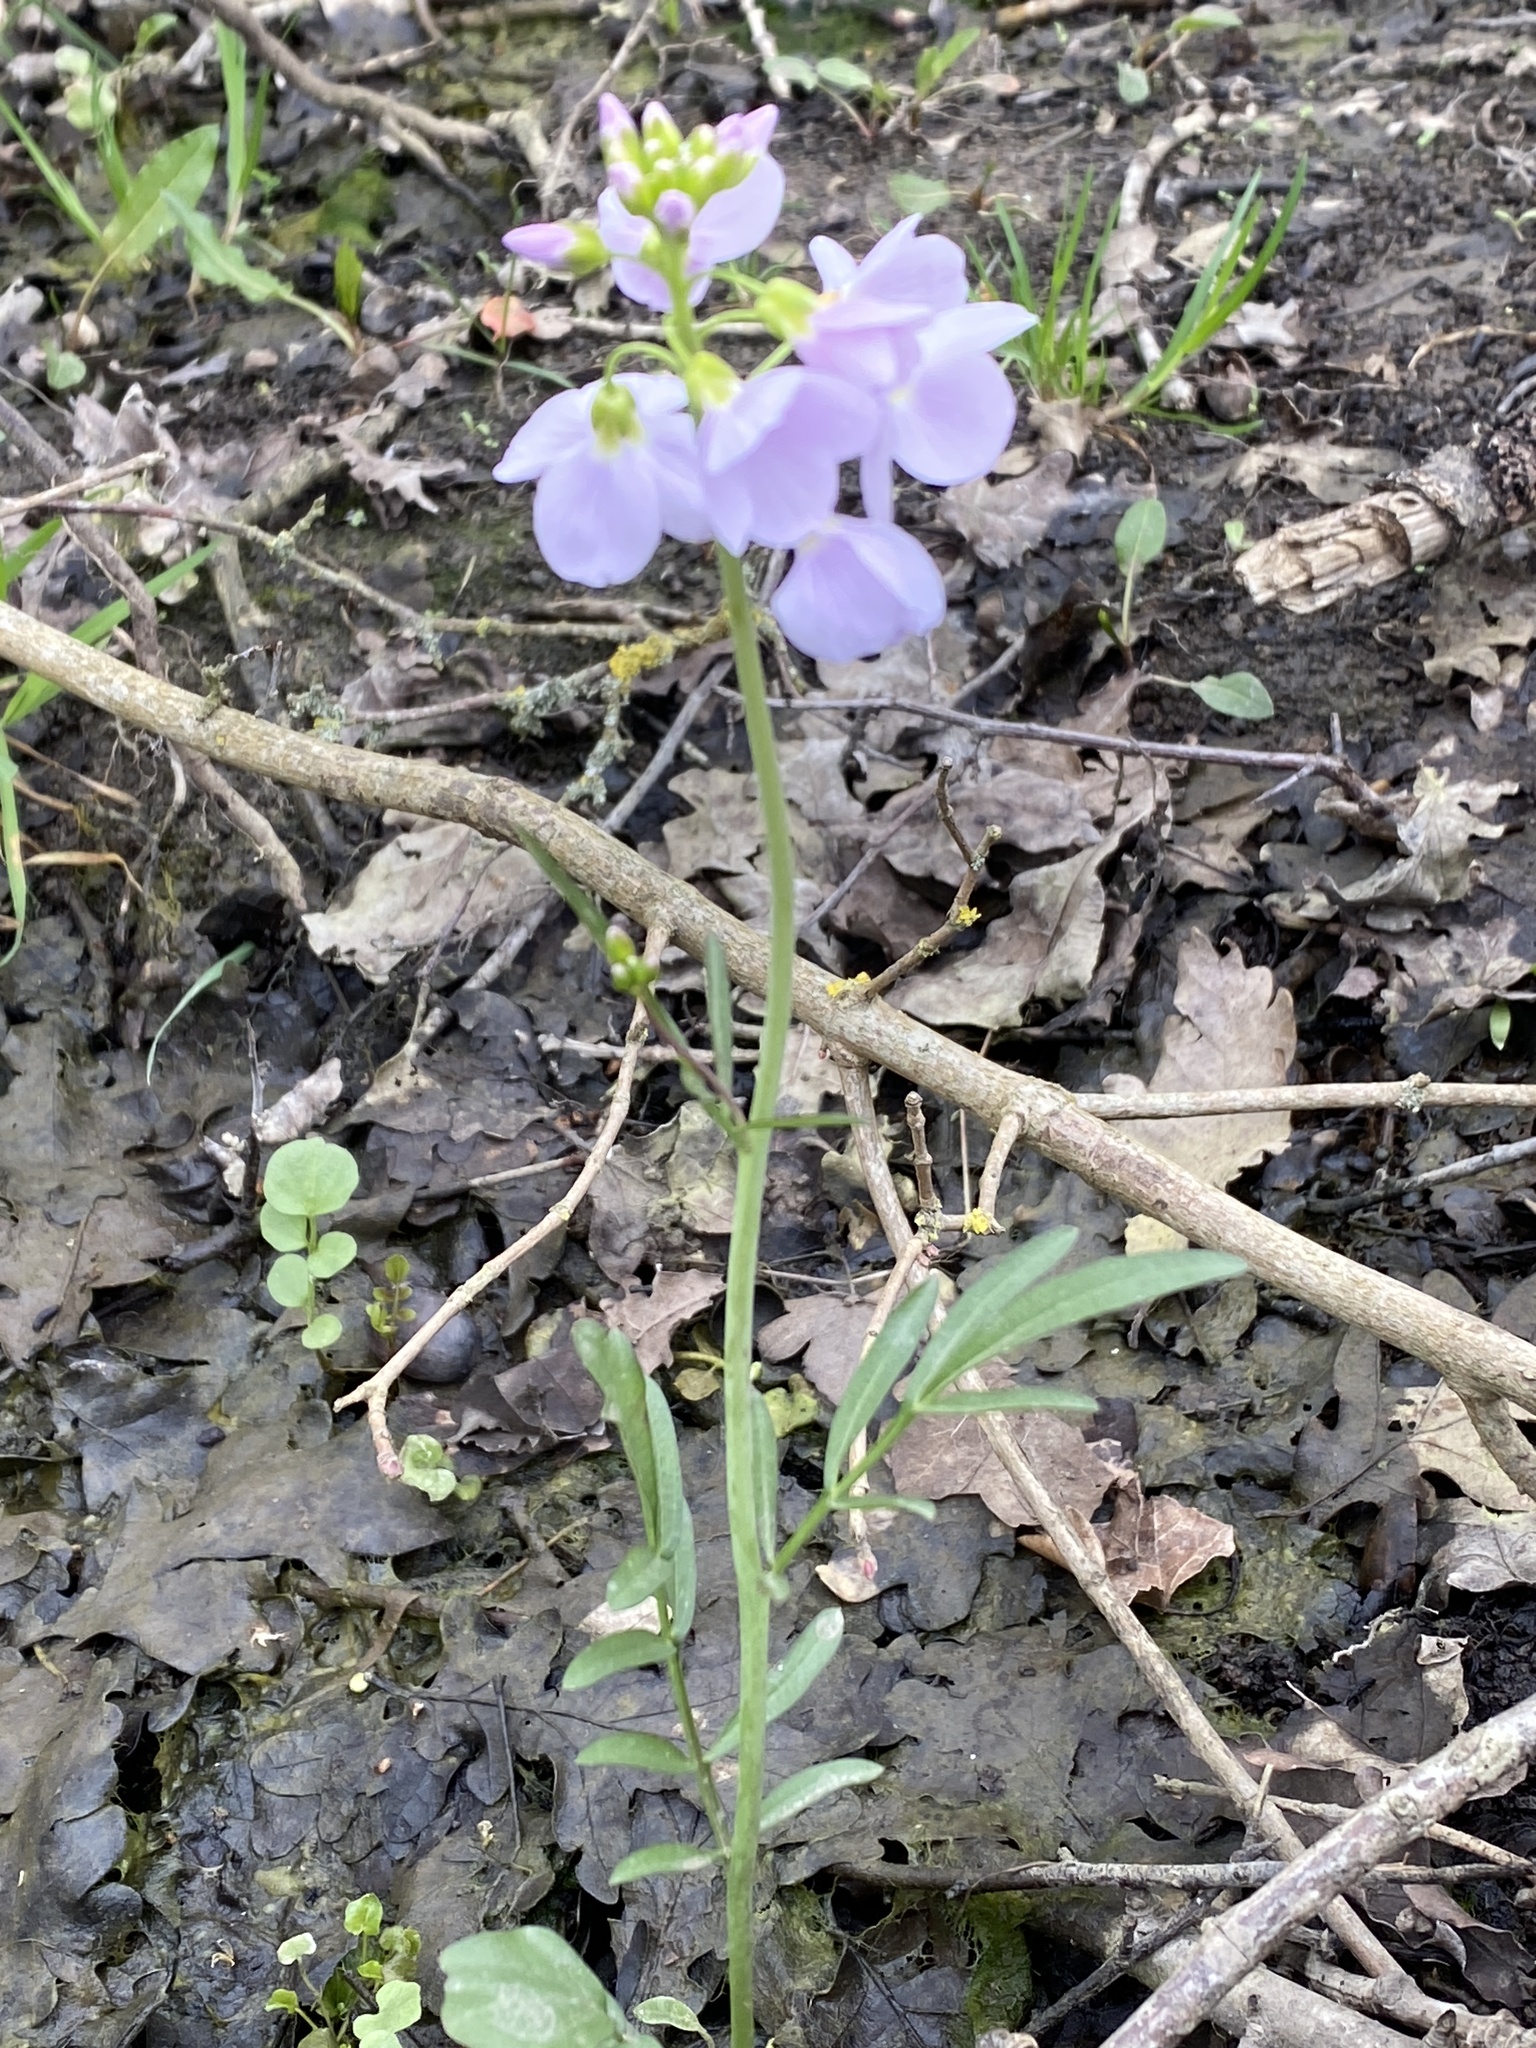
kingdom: Plantae
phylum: Tracheophyta
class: Magnoliopsida
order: Brassicales
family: Brassicaceae
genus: Cardamine
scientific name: Cardamine pratensis
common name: Cuckoo flower
